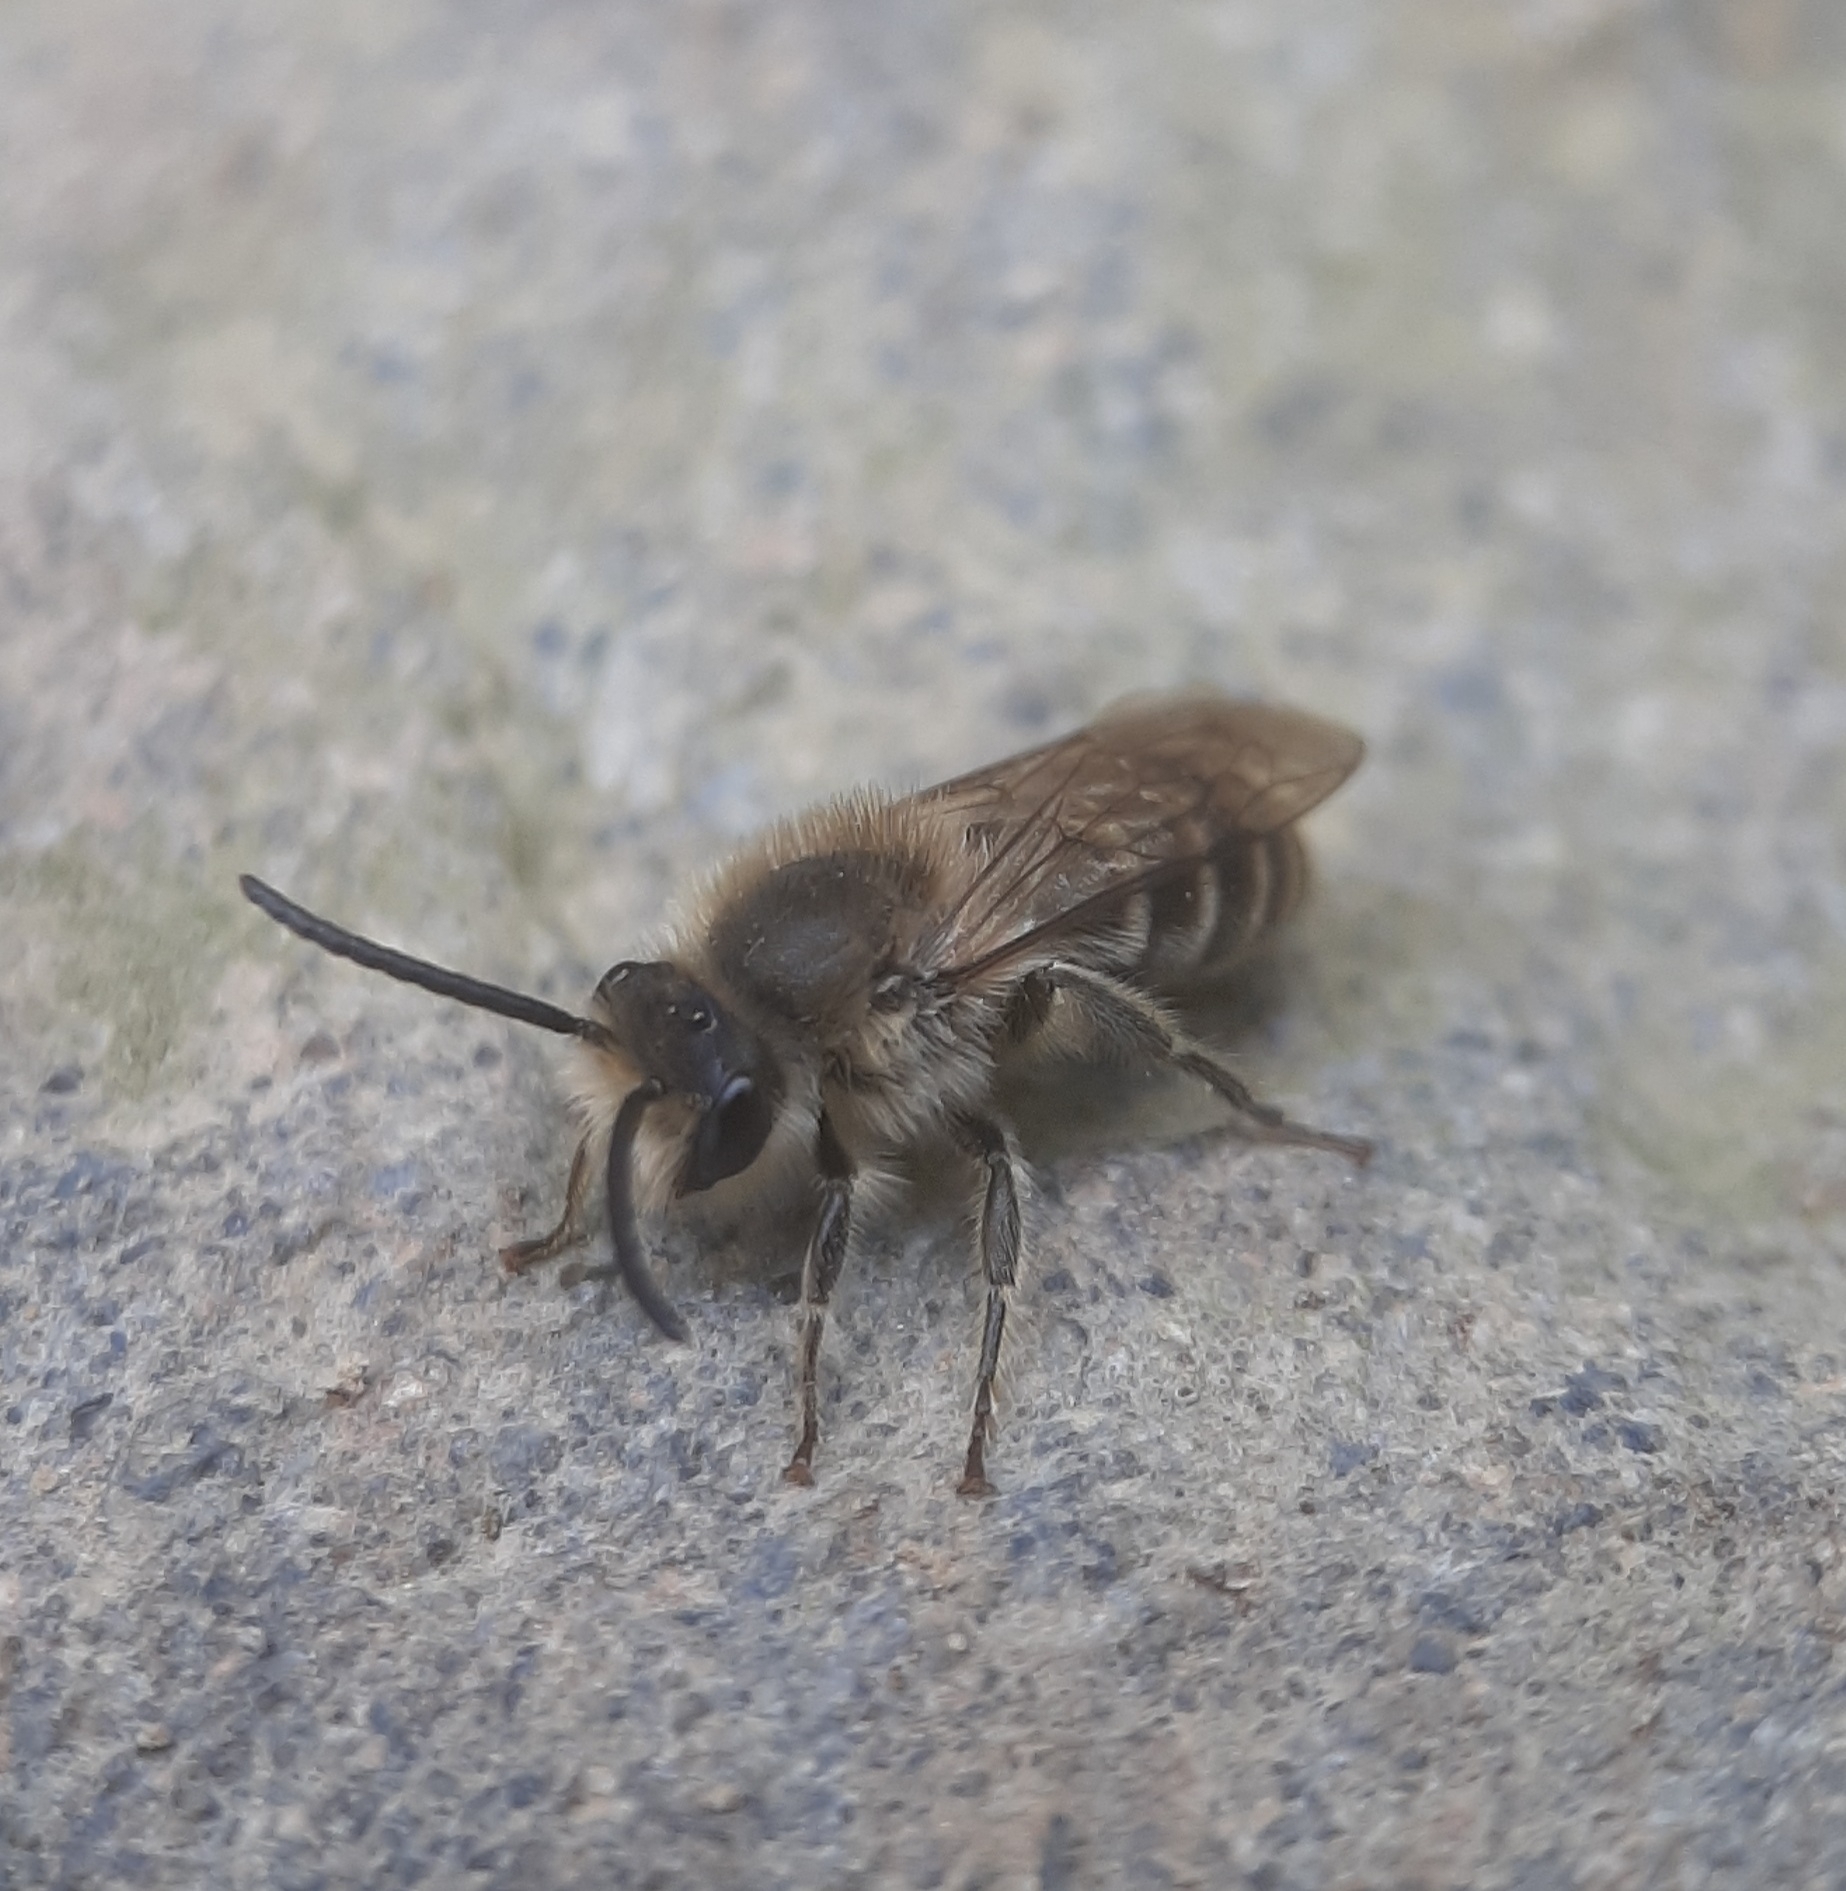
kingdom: Animalia
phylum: Arthropoda
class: Insecta
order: Hymenoptera
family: Colletidae
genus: Colletes
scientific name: Colletes inaequalis
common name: Unequal cellophane bee
